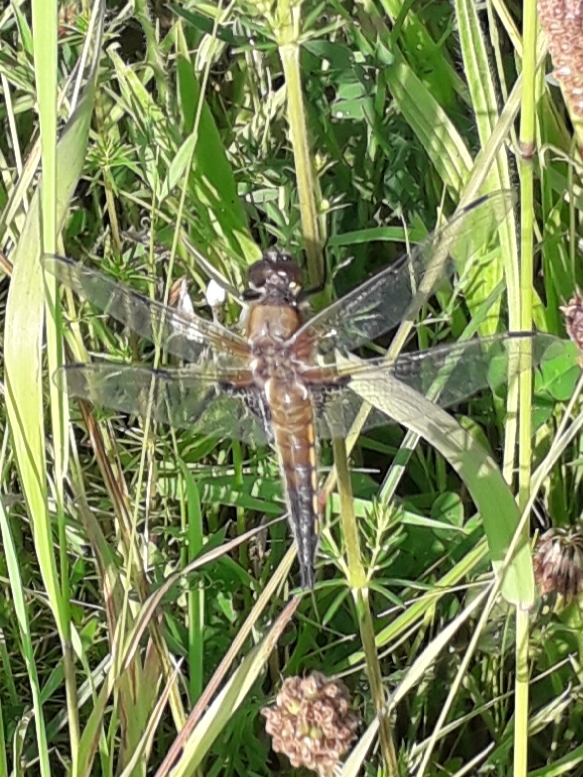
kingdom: Animalia
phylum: Arthropoda
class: Insecta
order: Odonata
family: Libellulidae
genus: Libellula
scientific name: Libellula quadrimaculata
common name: Four-spotted chaser
